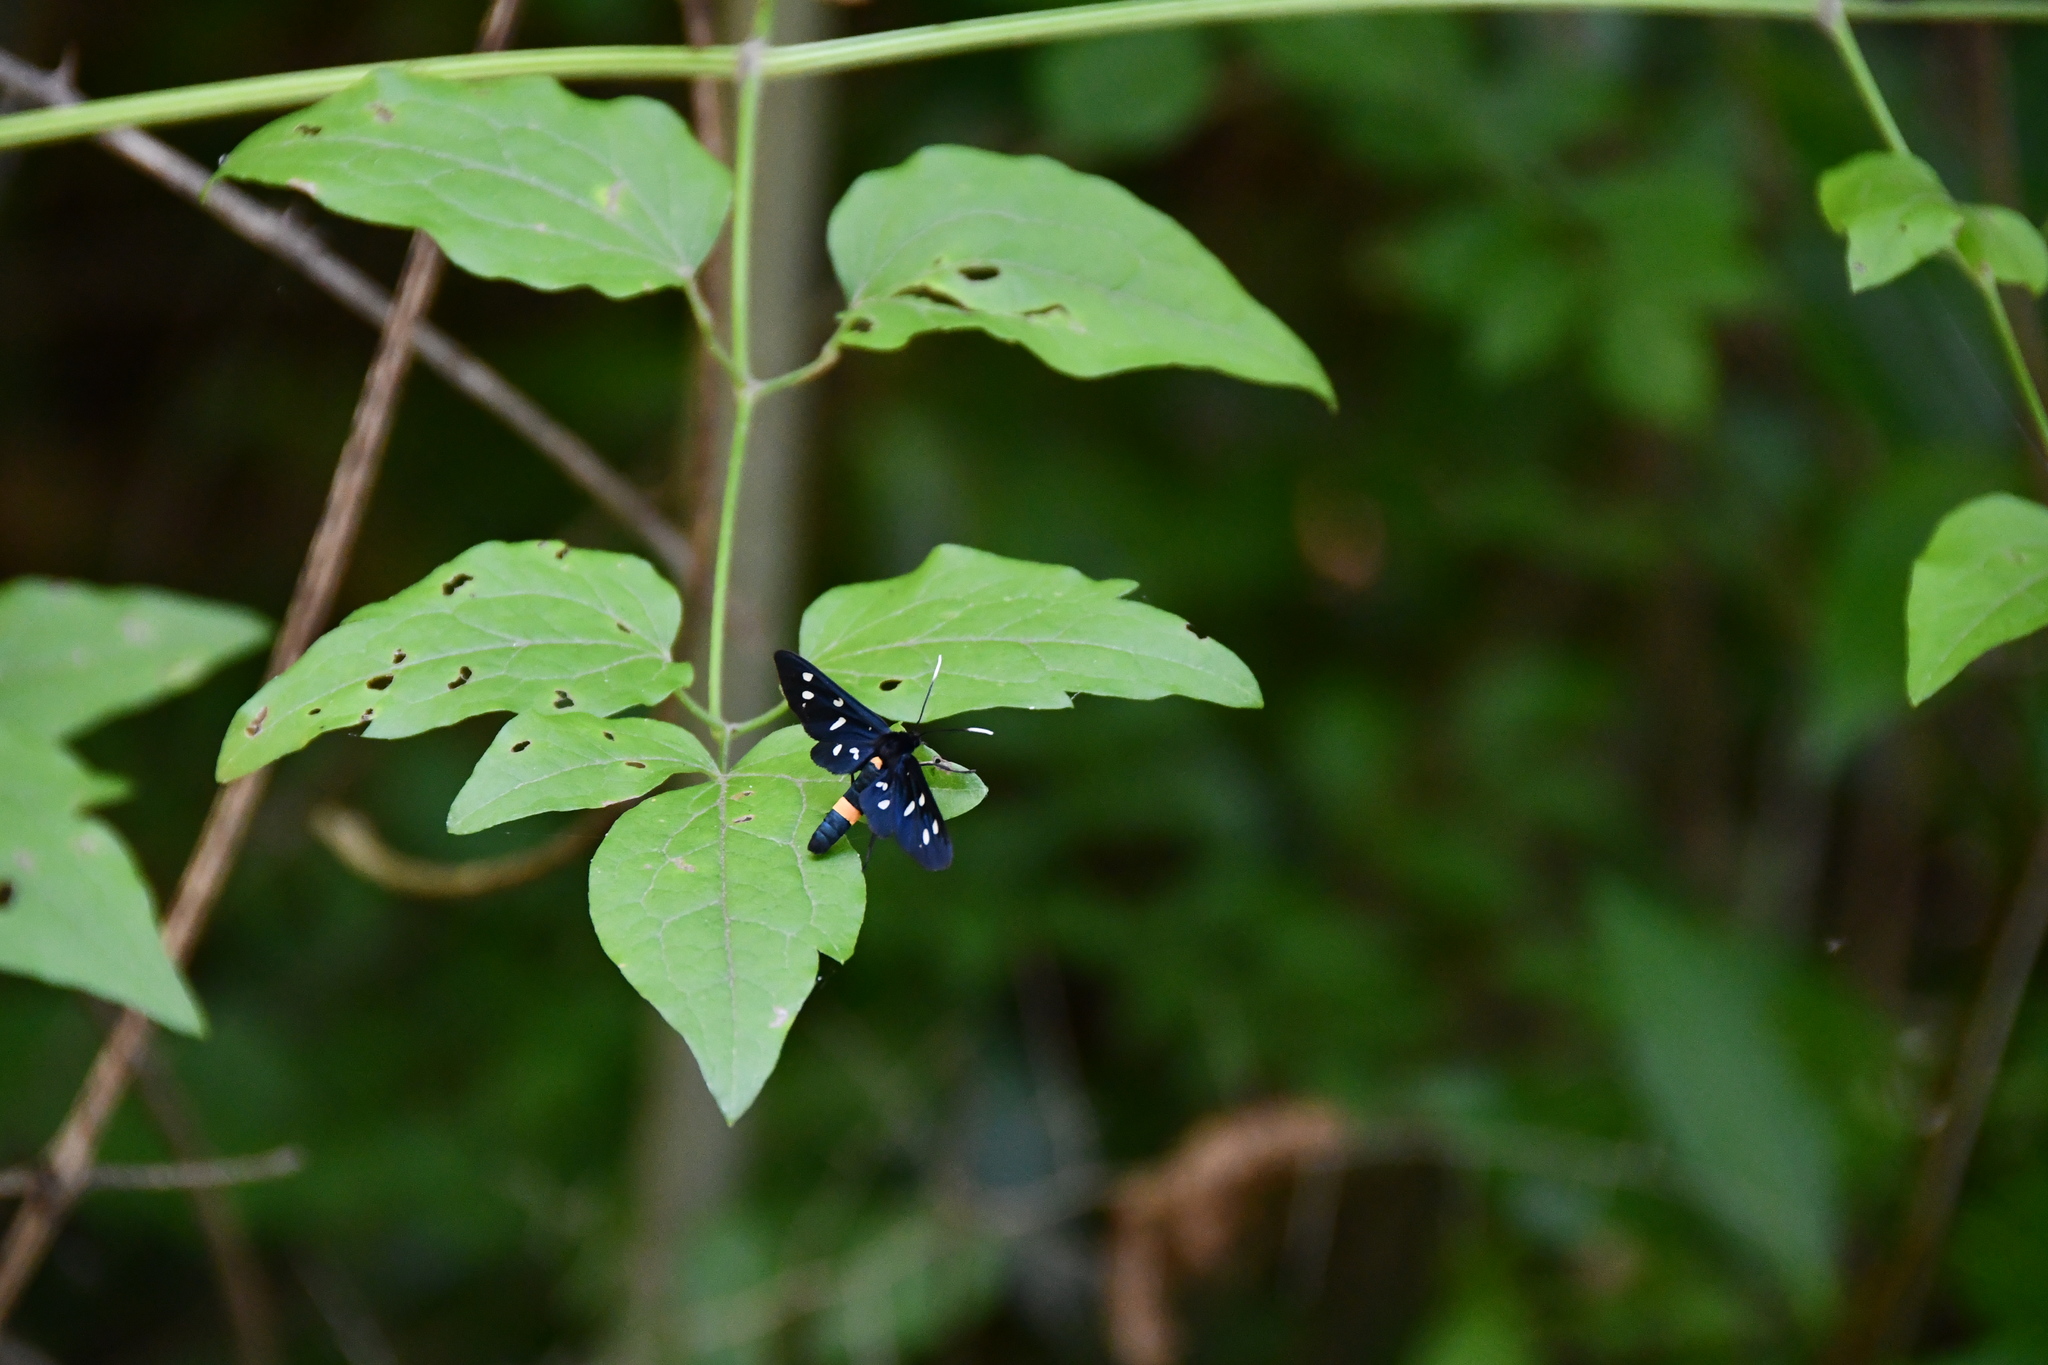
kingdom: Animalia
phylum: Arthropoda
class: Insecta
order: Lepidoptera
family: Erebidae
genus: Amata
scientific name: Amata phegea
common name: Nine-spotted
